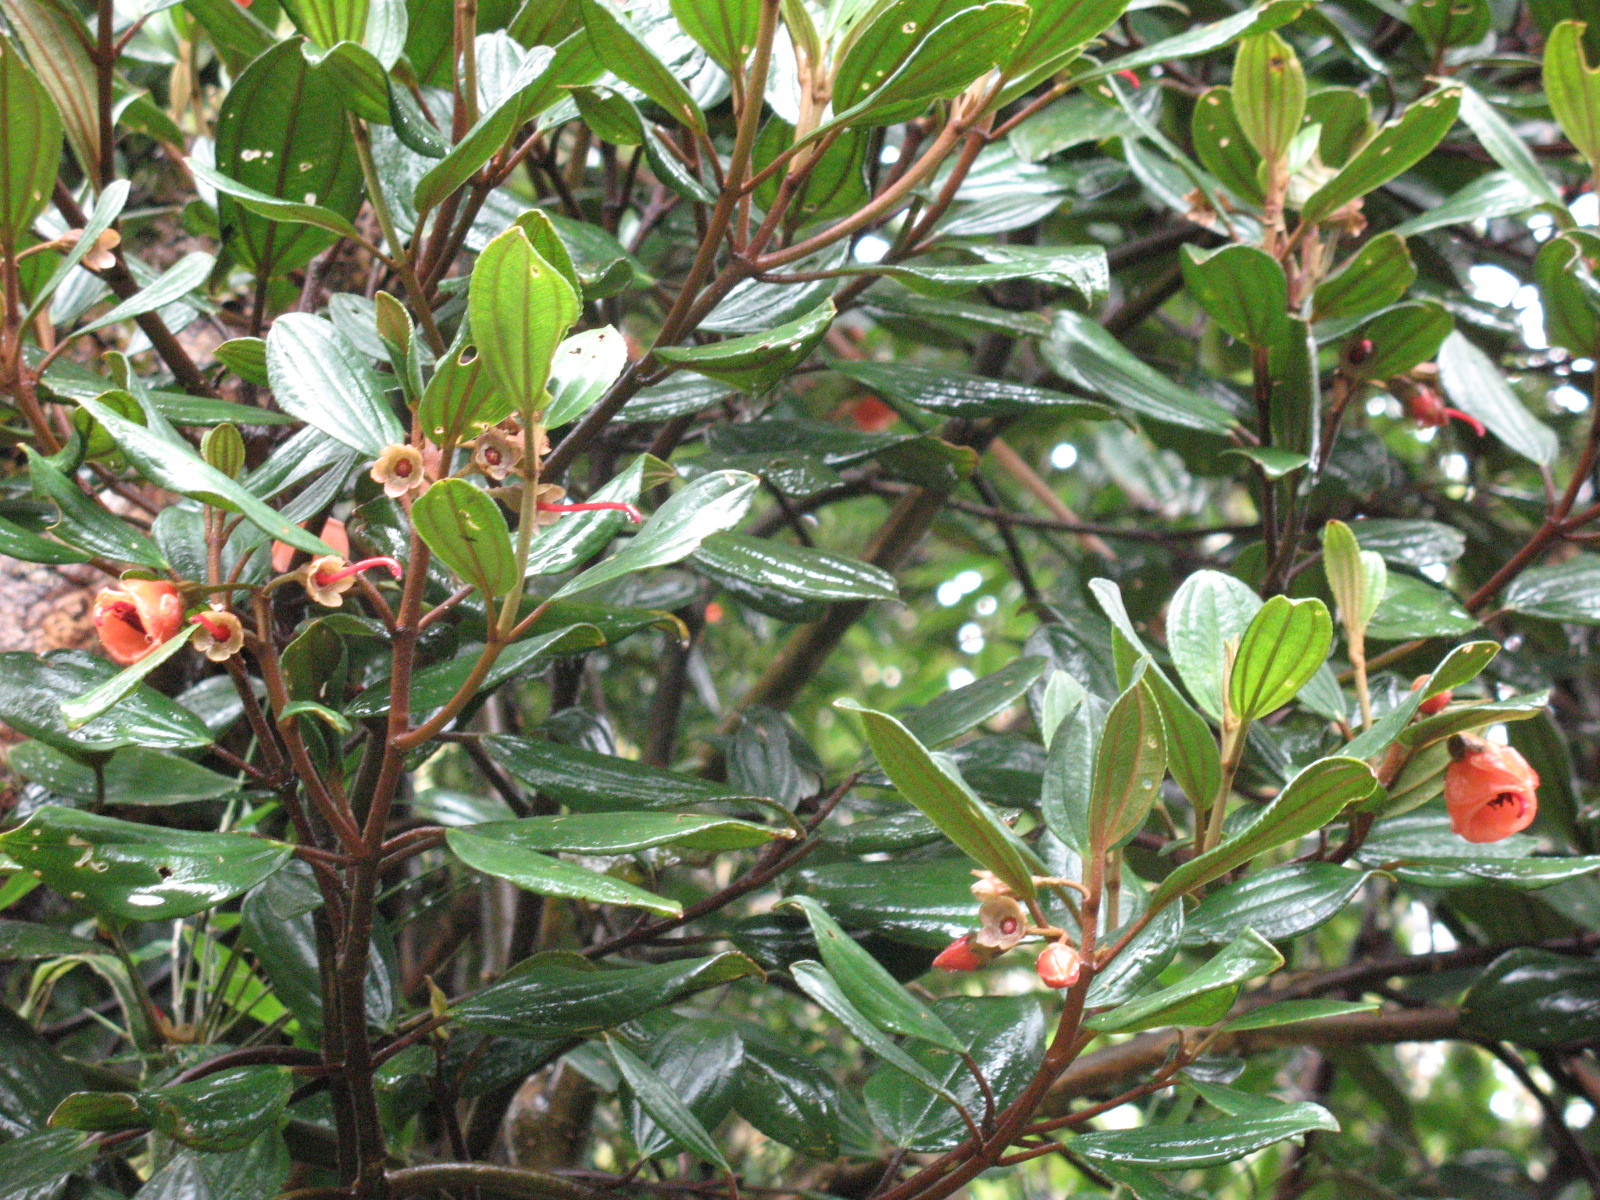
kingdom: Plantae
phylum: Tracheophyta
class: Magnoliopsida
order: Myrtales
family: Melastomataceae
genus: Meriania
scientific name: Meriania furvanthera
